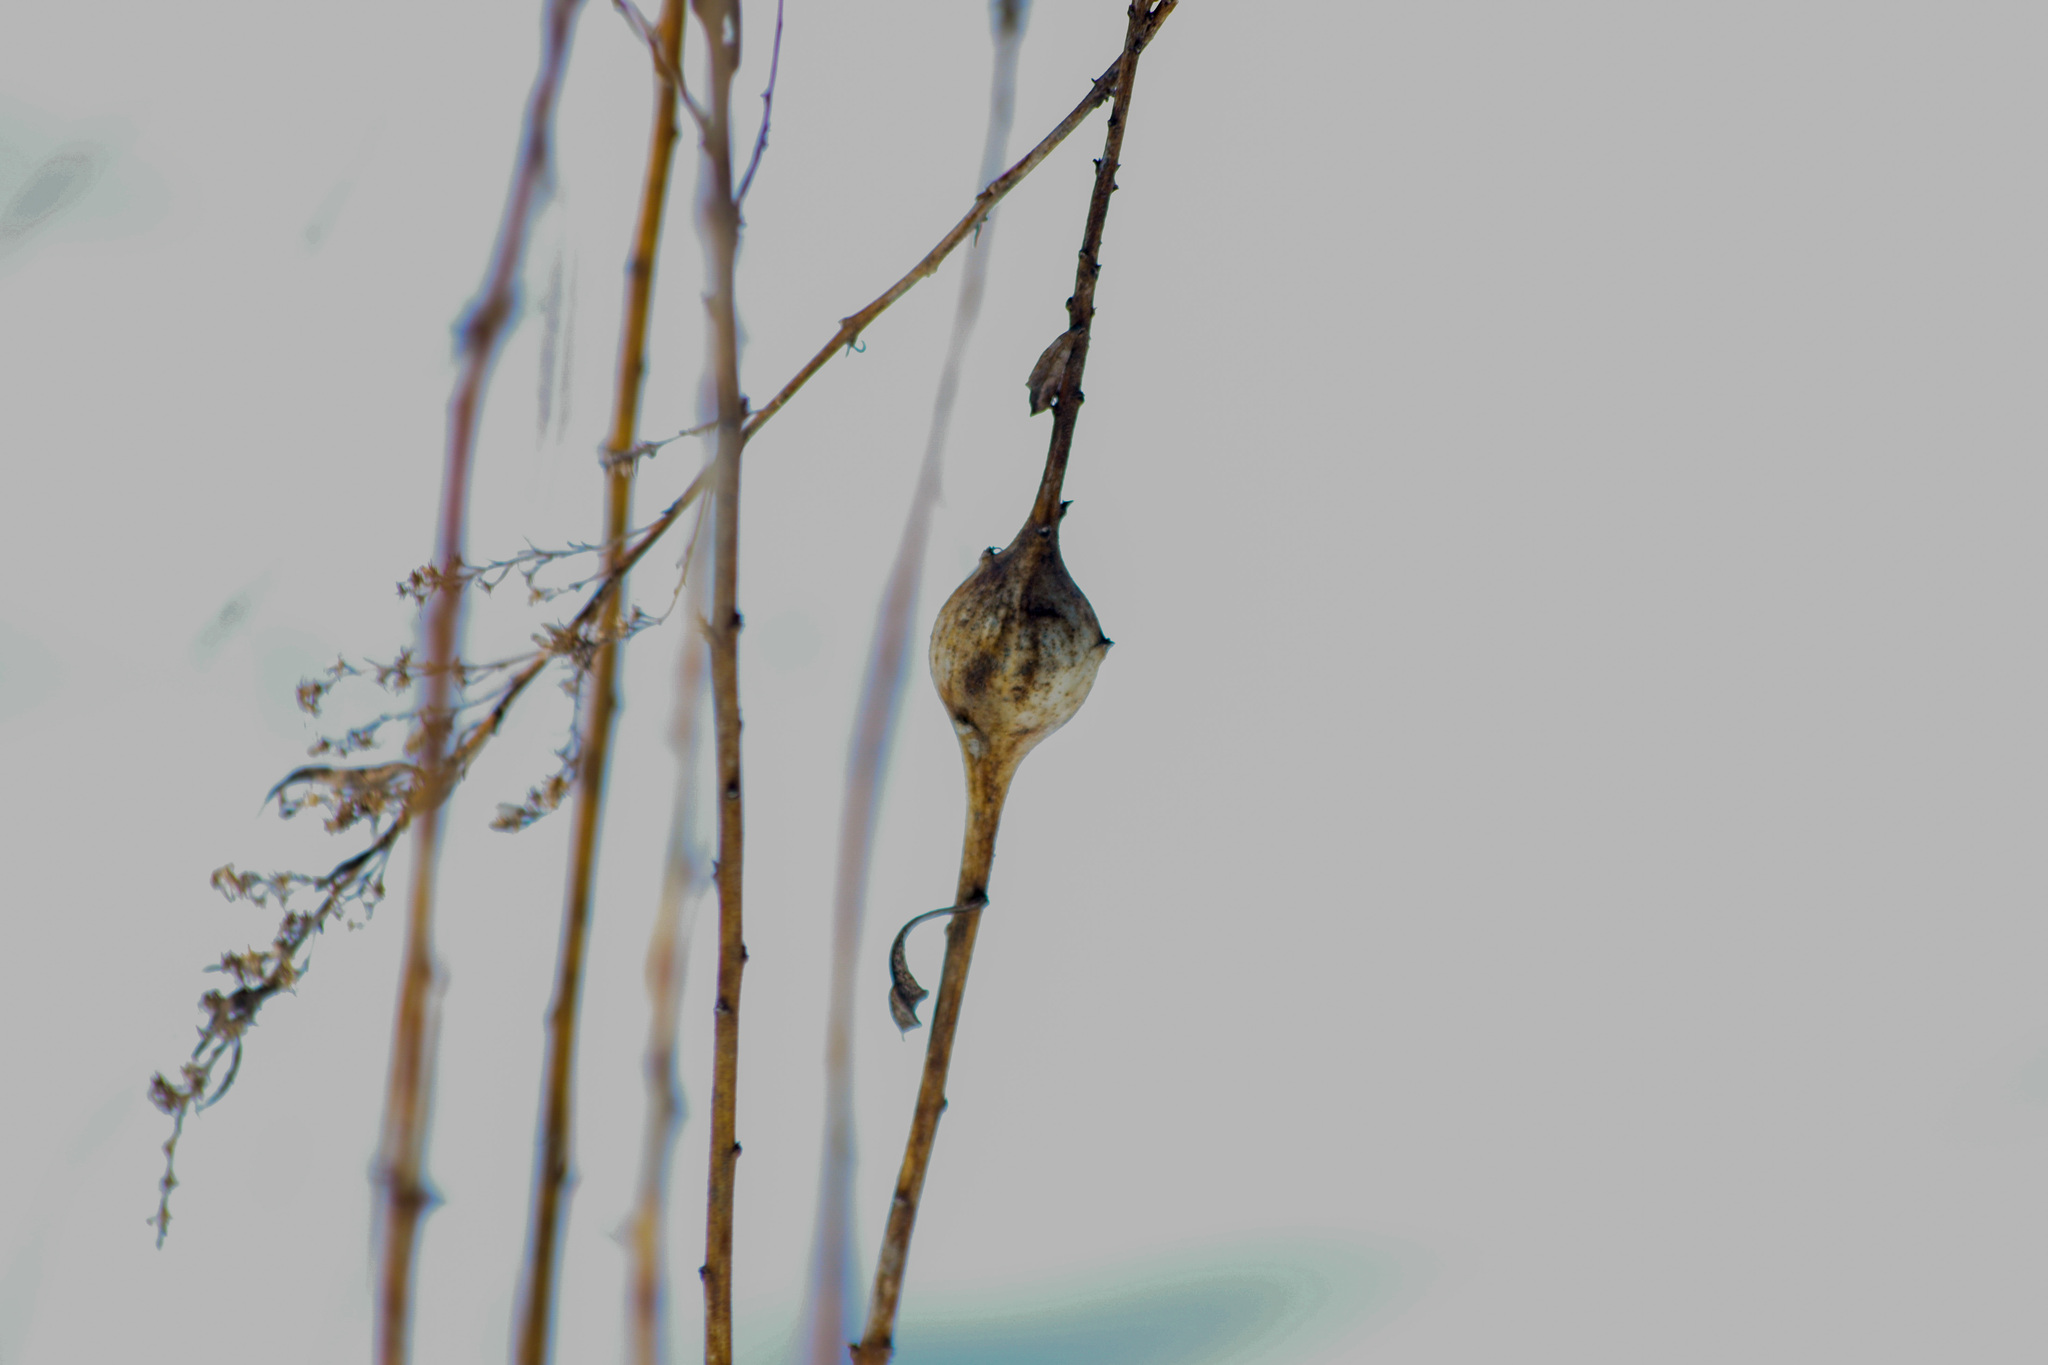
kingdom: Animalia
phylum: Arthropoda
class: Insecta
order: Diptera
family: Tephritidae
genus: Eurosta
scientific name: Eurosta solidaginis
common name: Goldenrod gall fly
